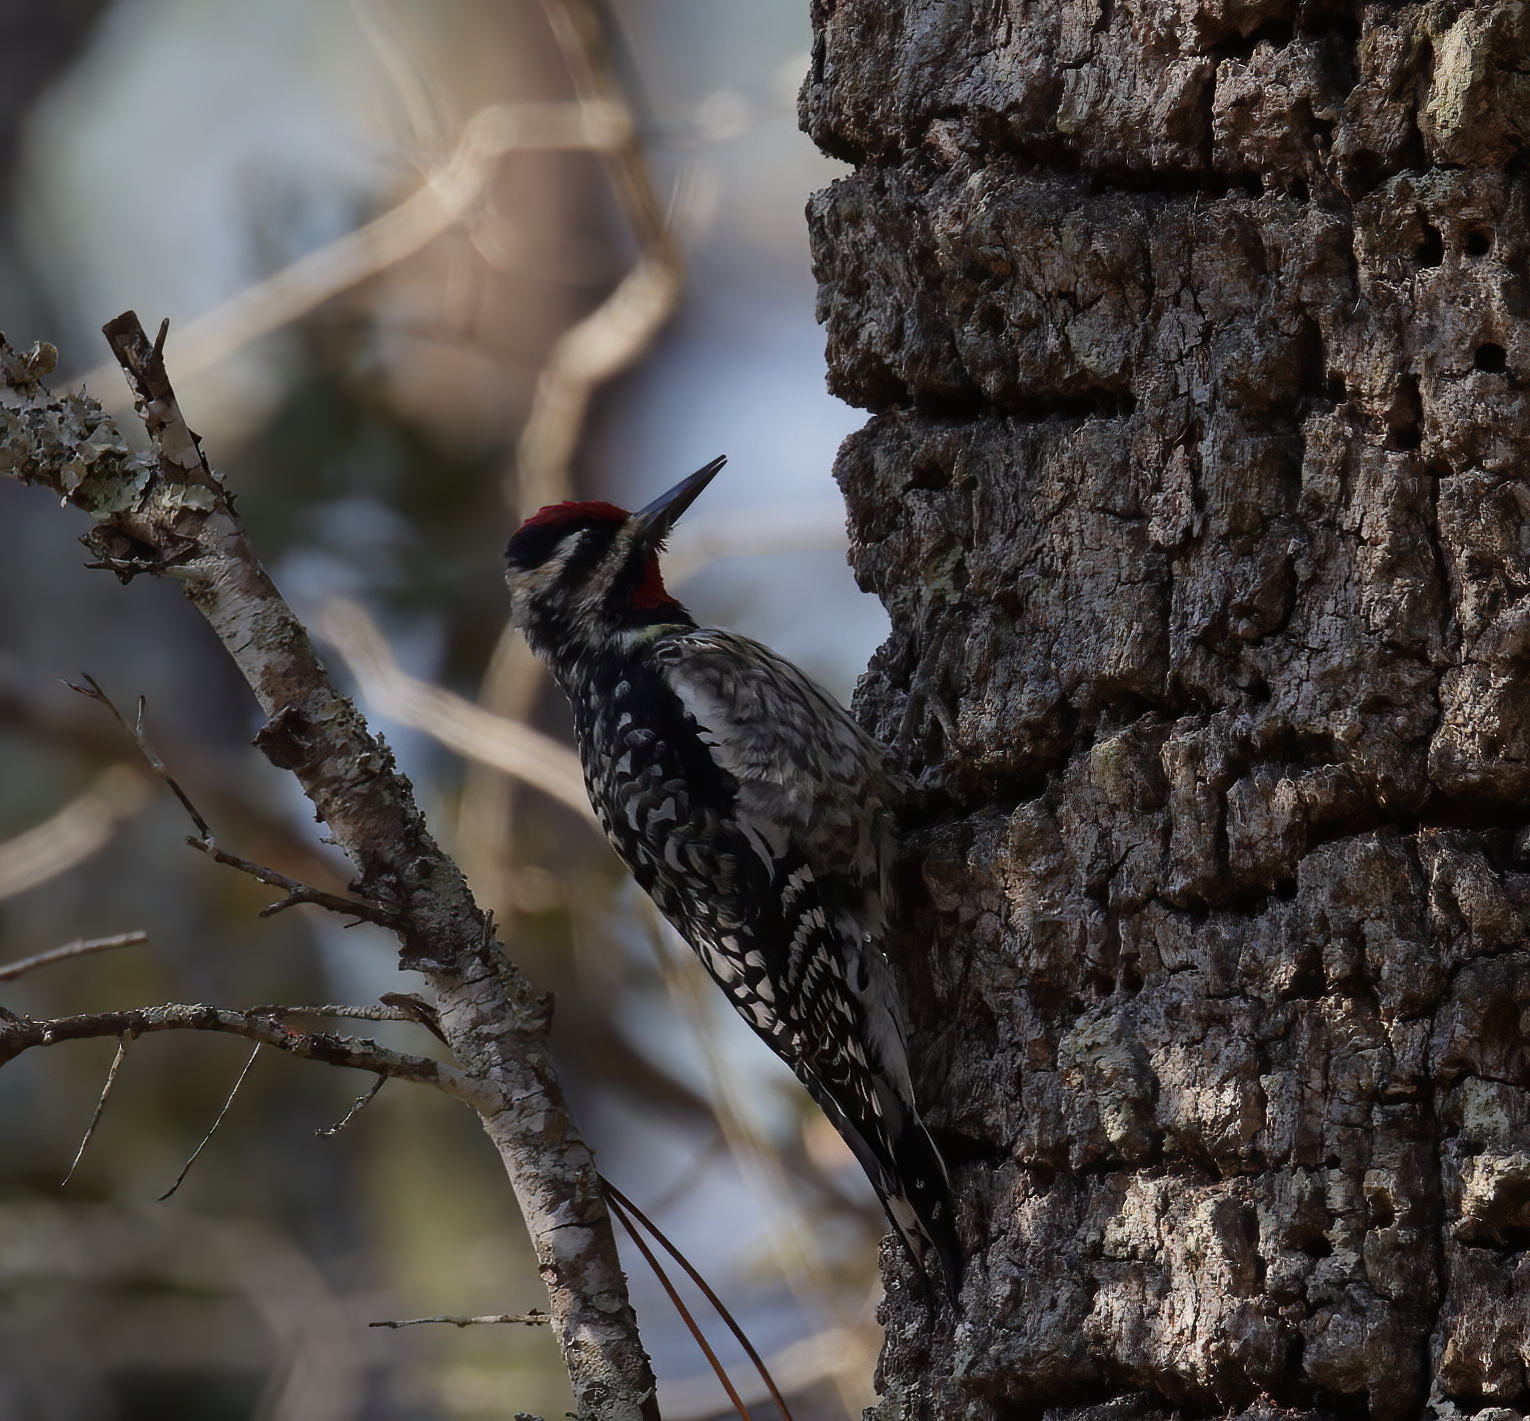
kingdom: Animalia
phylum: Chordata
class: Aves
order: Piciformes
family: Picidae
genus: Sphyrapicus
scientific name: Sphyrapicus varius
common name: Yellow-bellied sapsucker
